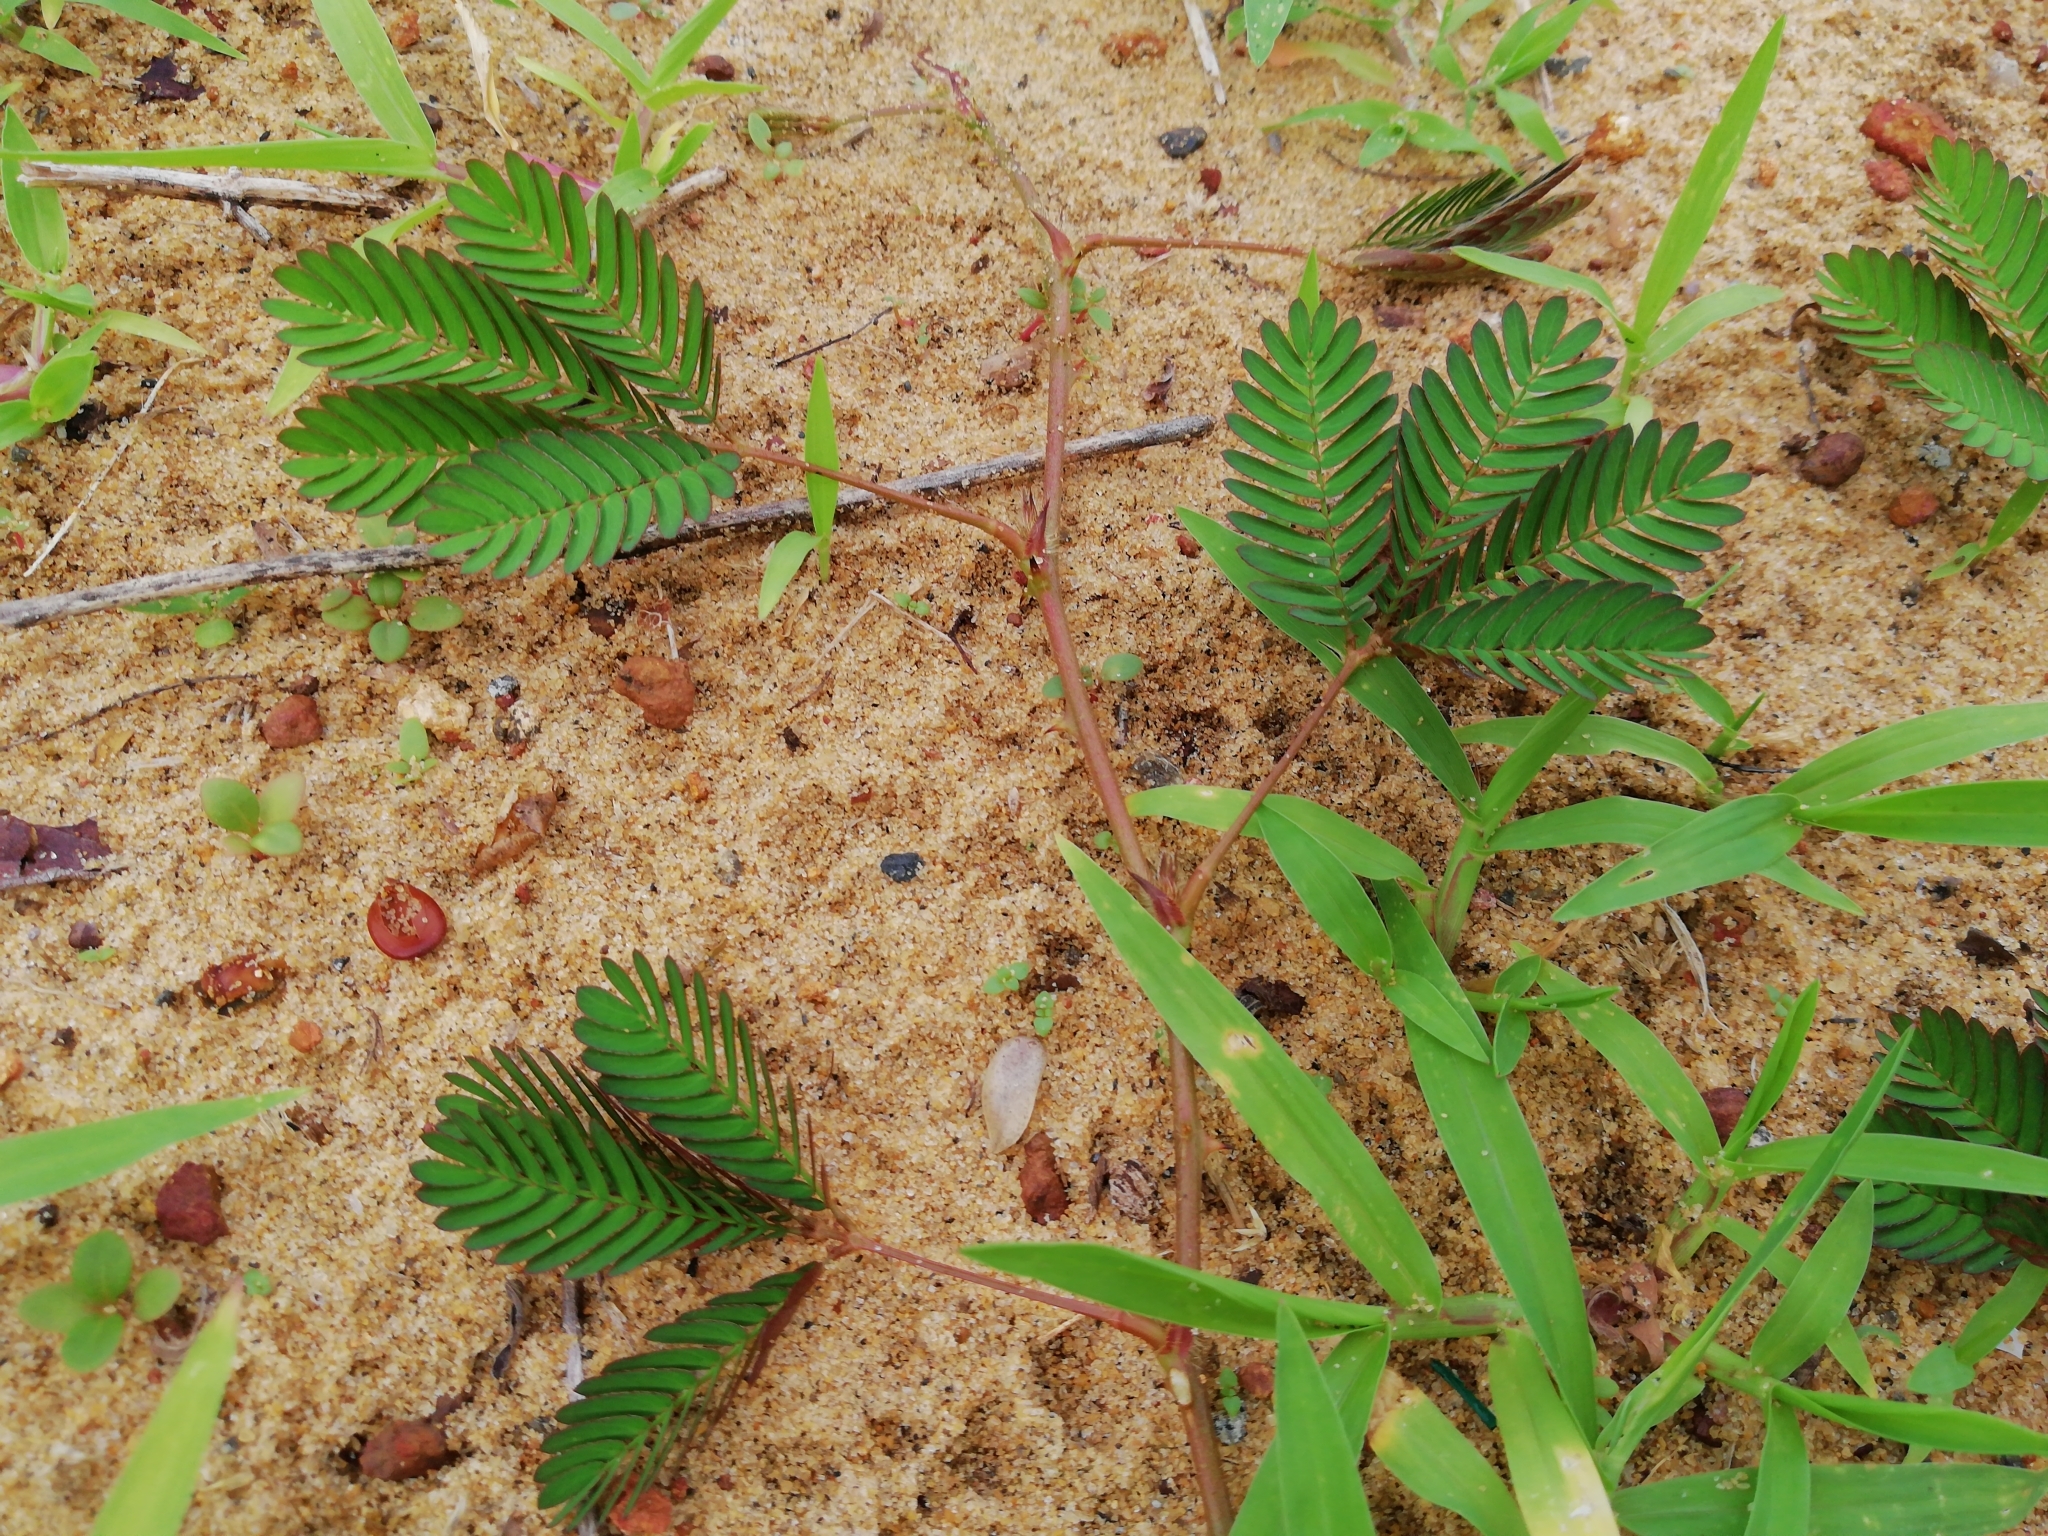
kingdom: Plantae
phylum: Tracheophyta
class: Magnoliopsida
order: Fabales
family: Fabaceae
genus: Mimosa
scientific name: Mimosa pudica
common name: Sensitive plant
